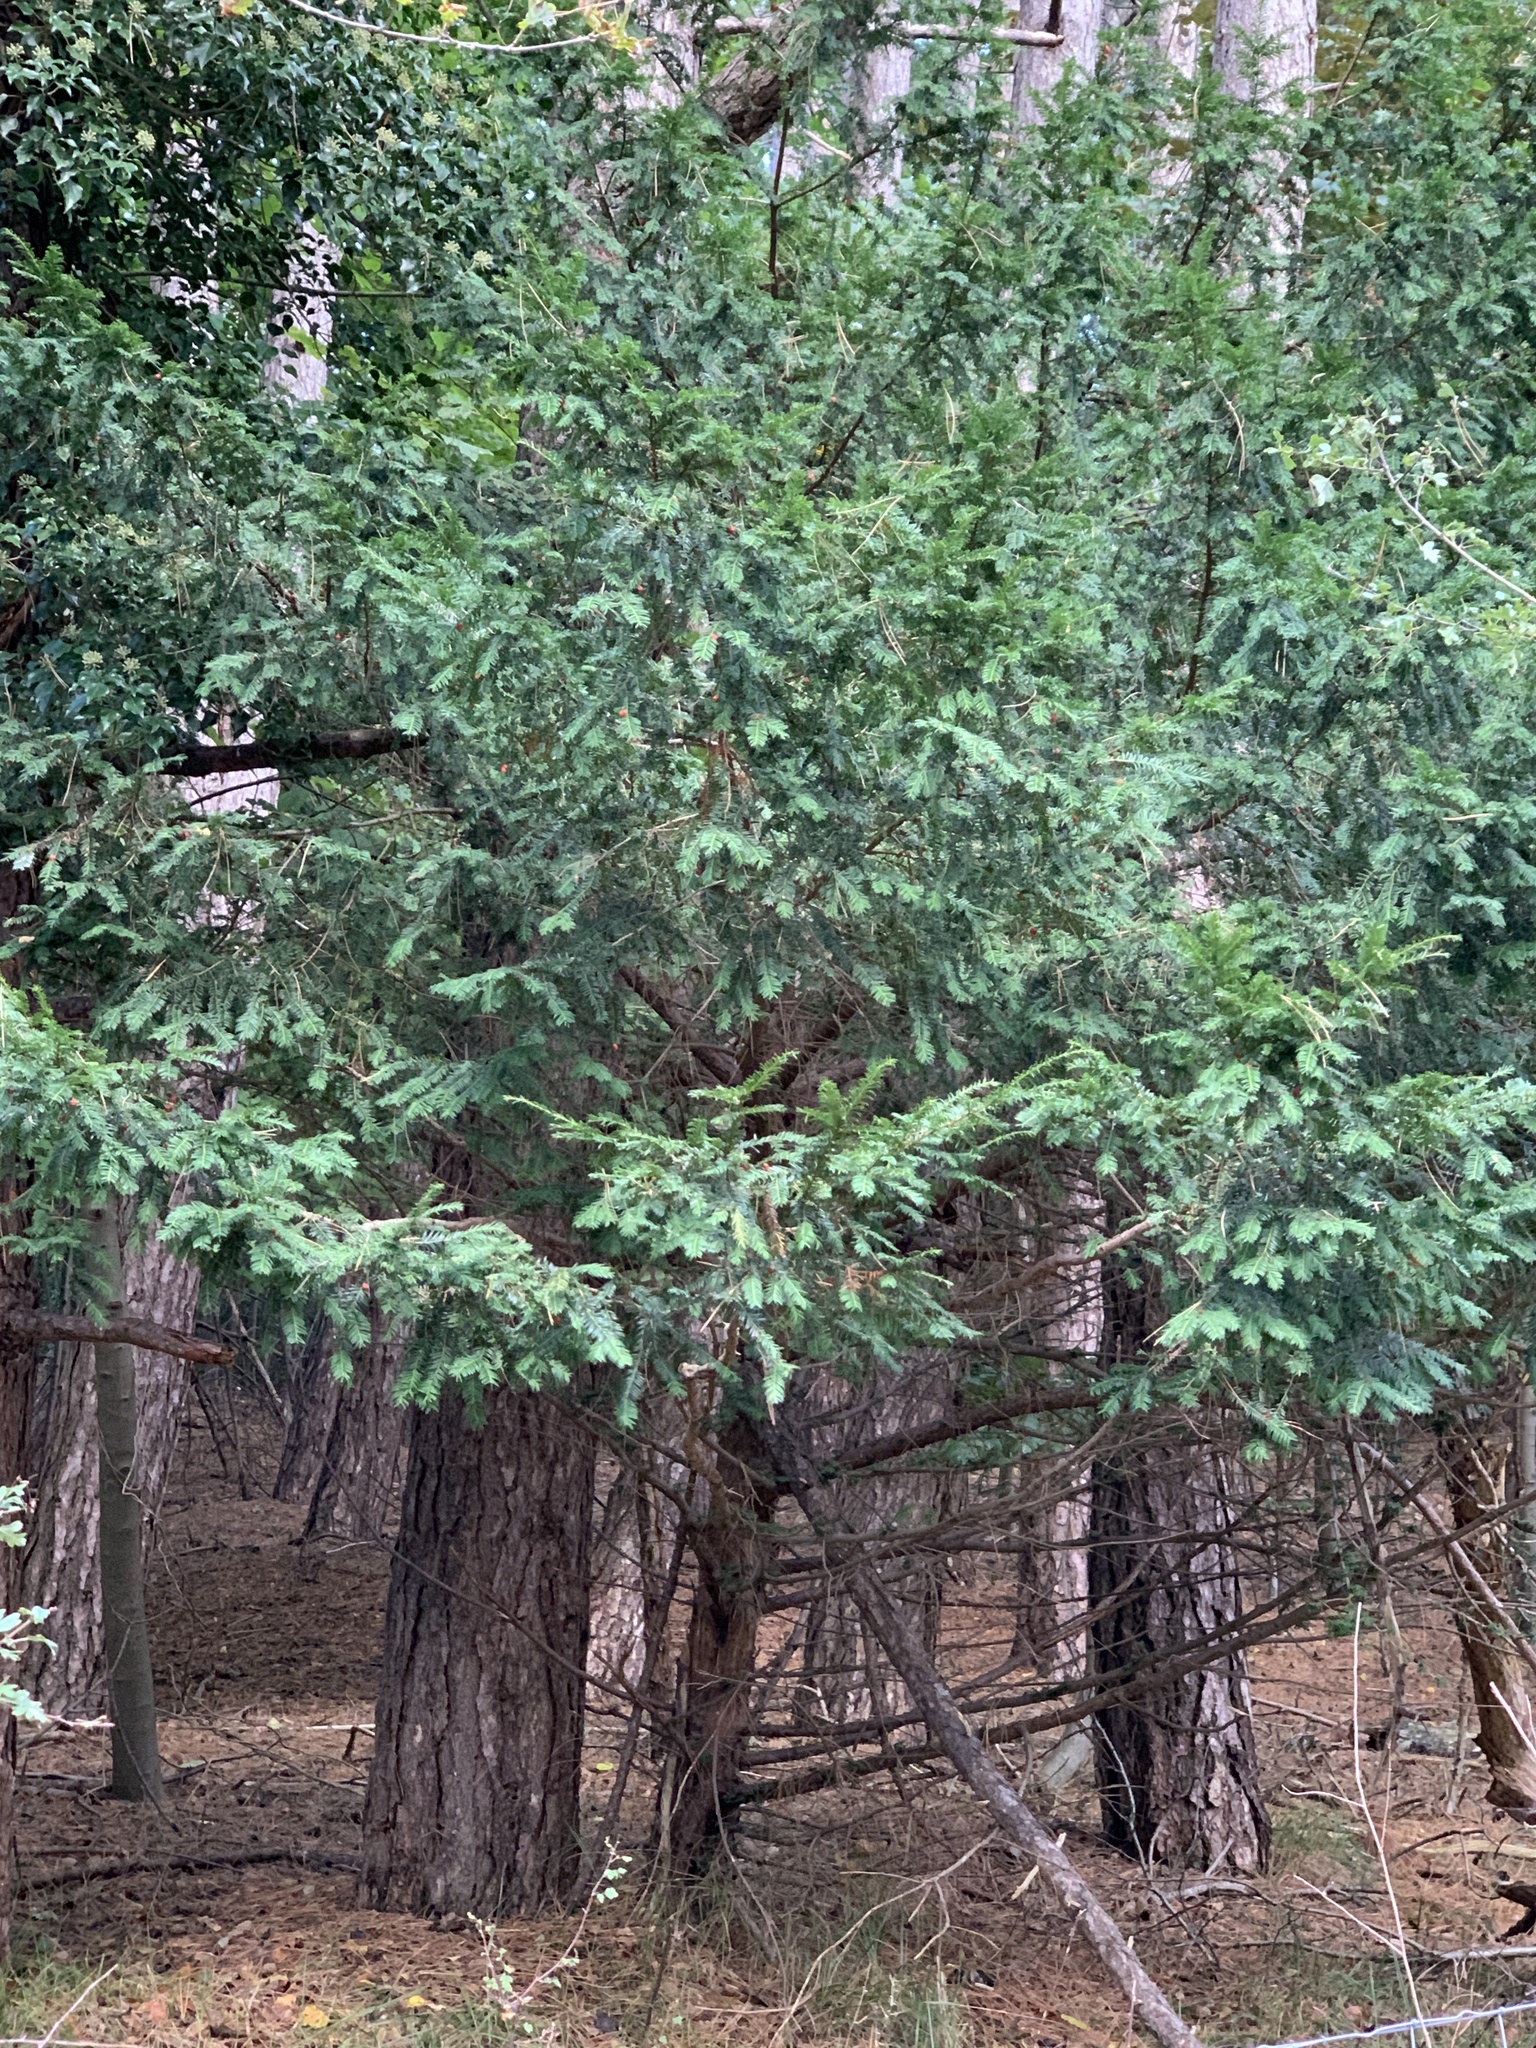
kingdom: Plantae
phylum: Tracheophyta
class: Pinopsida
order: Pinales
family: Taxaceae
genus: Taxus
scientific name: Taxus baccata
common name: Yew
